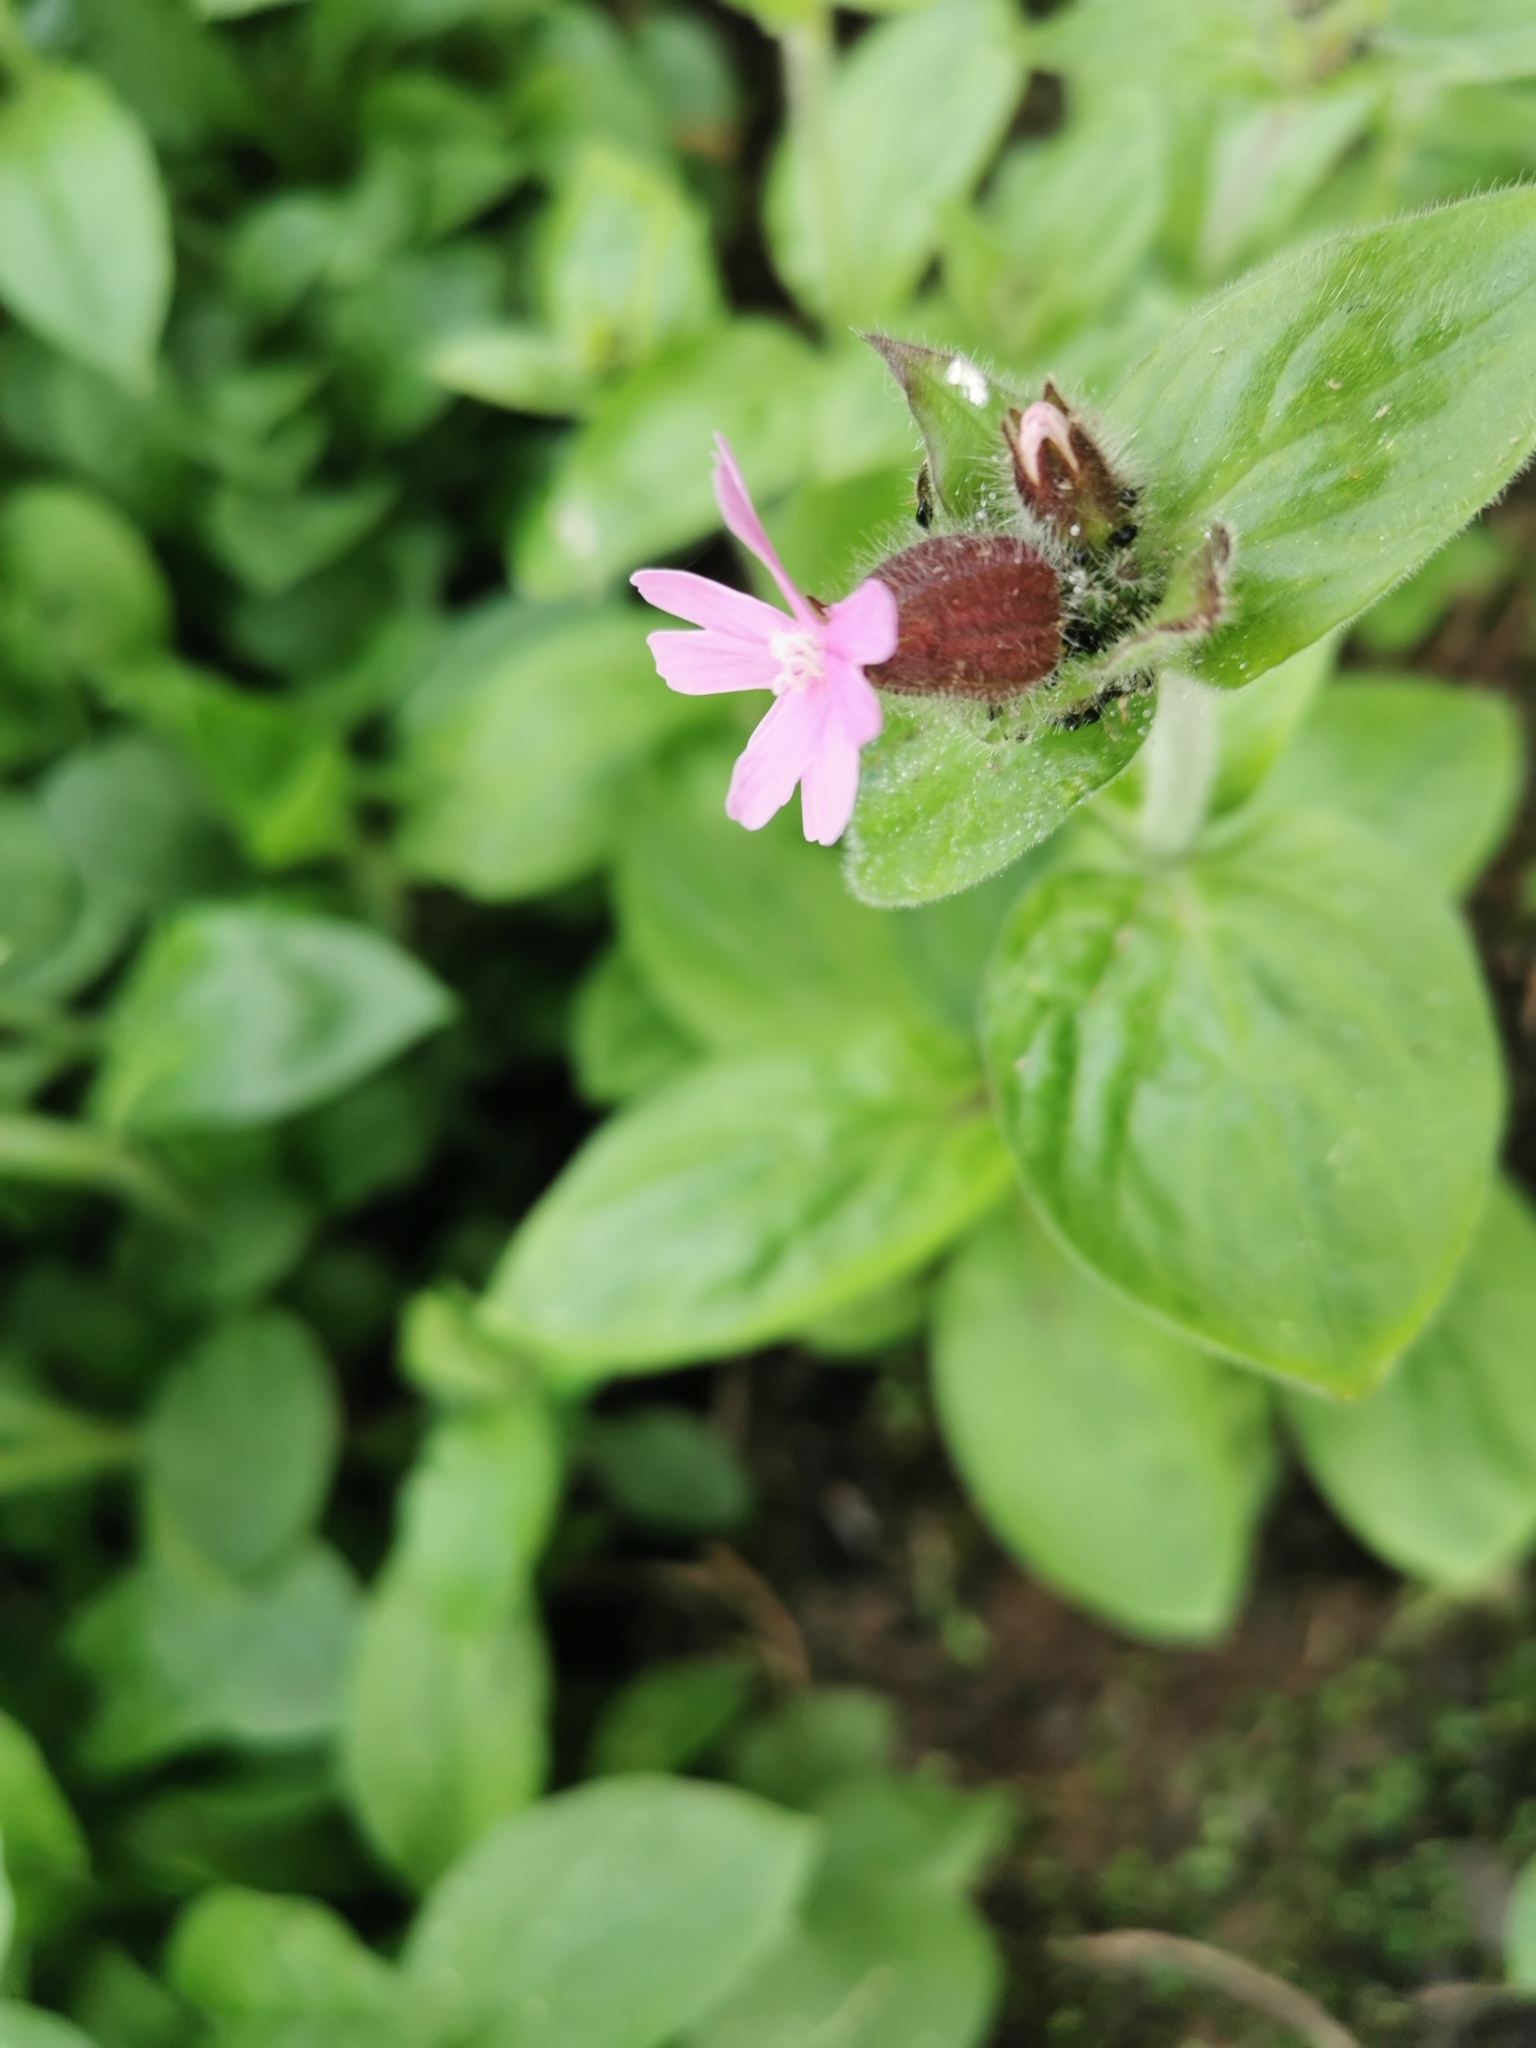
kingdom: Plantae
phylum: Tracheophyta
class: Magnoliopsida
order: Caryophyllales
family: Caryophyllaceae
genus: Silene
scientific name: Silene dioica
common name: Red campion
